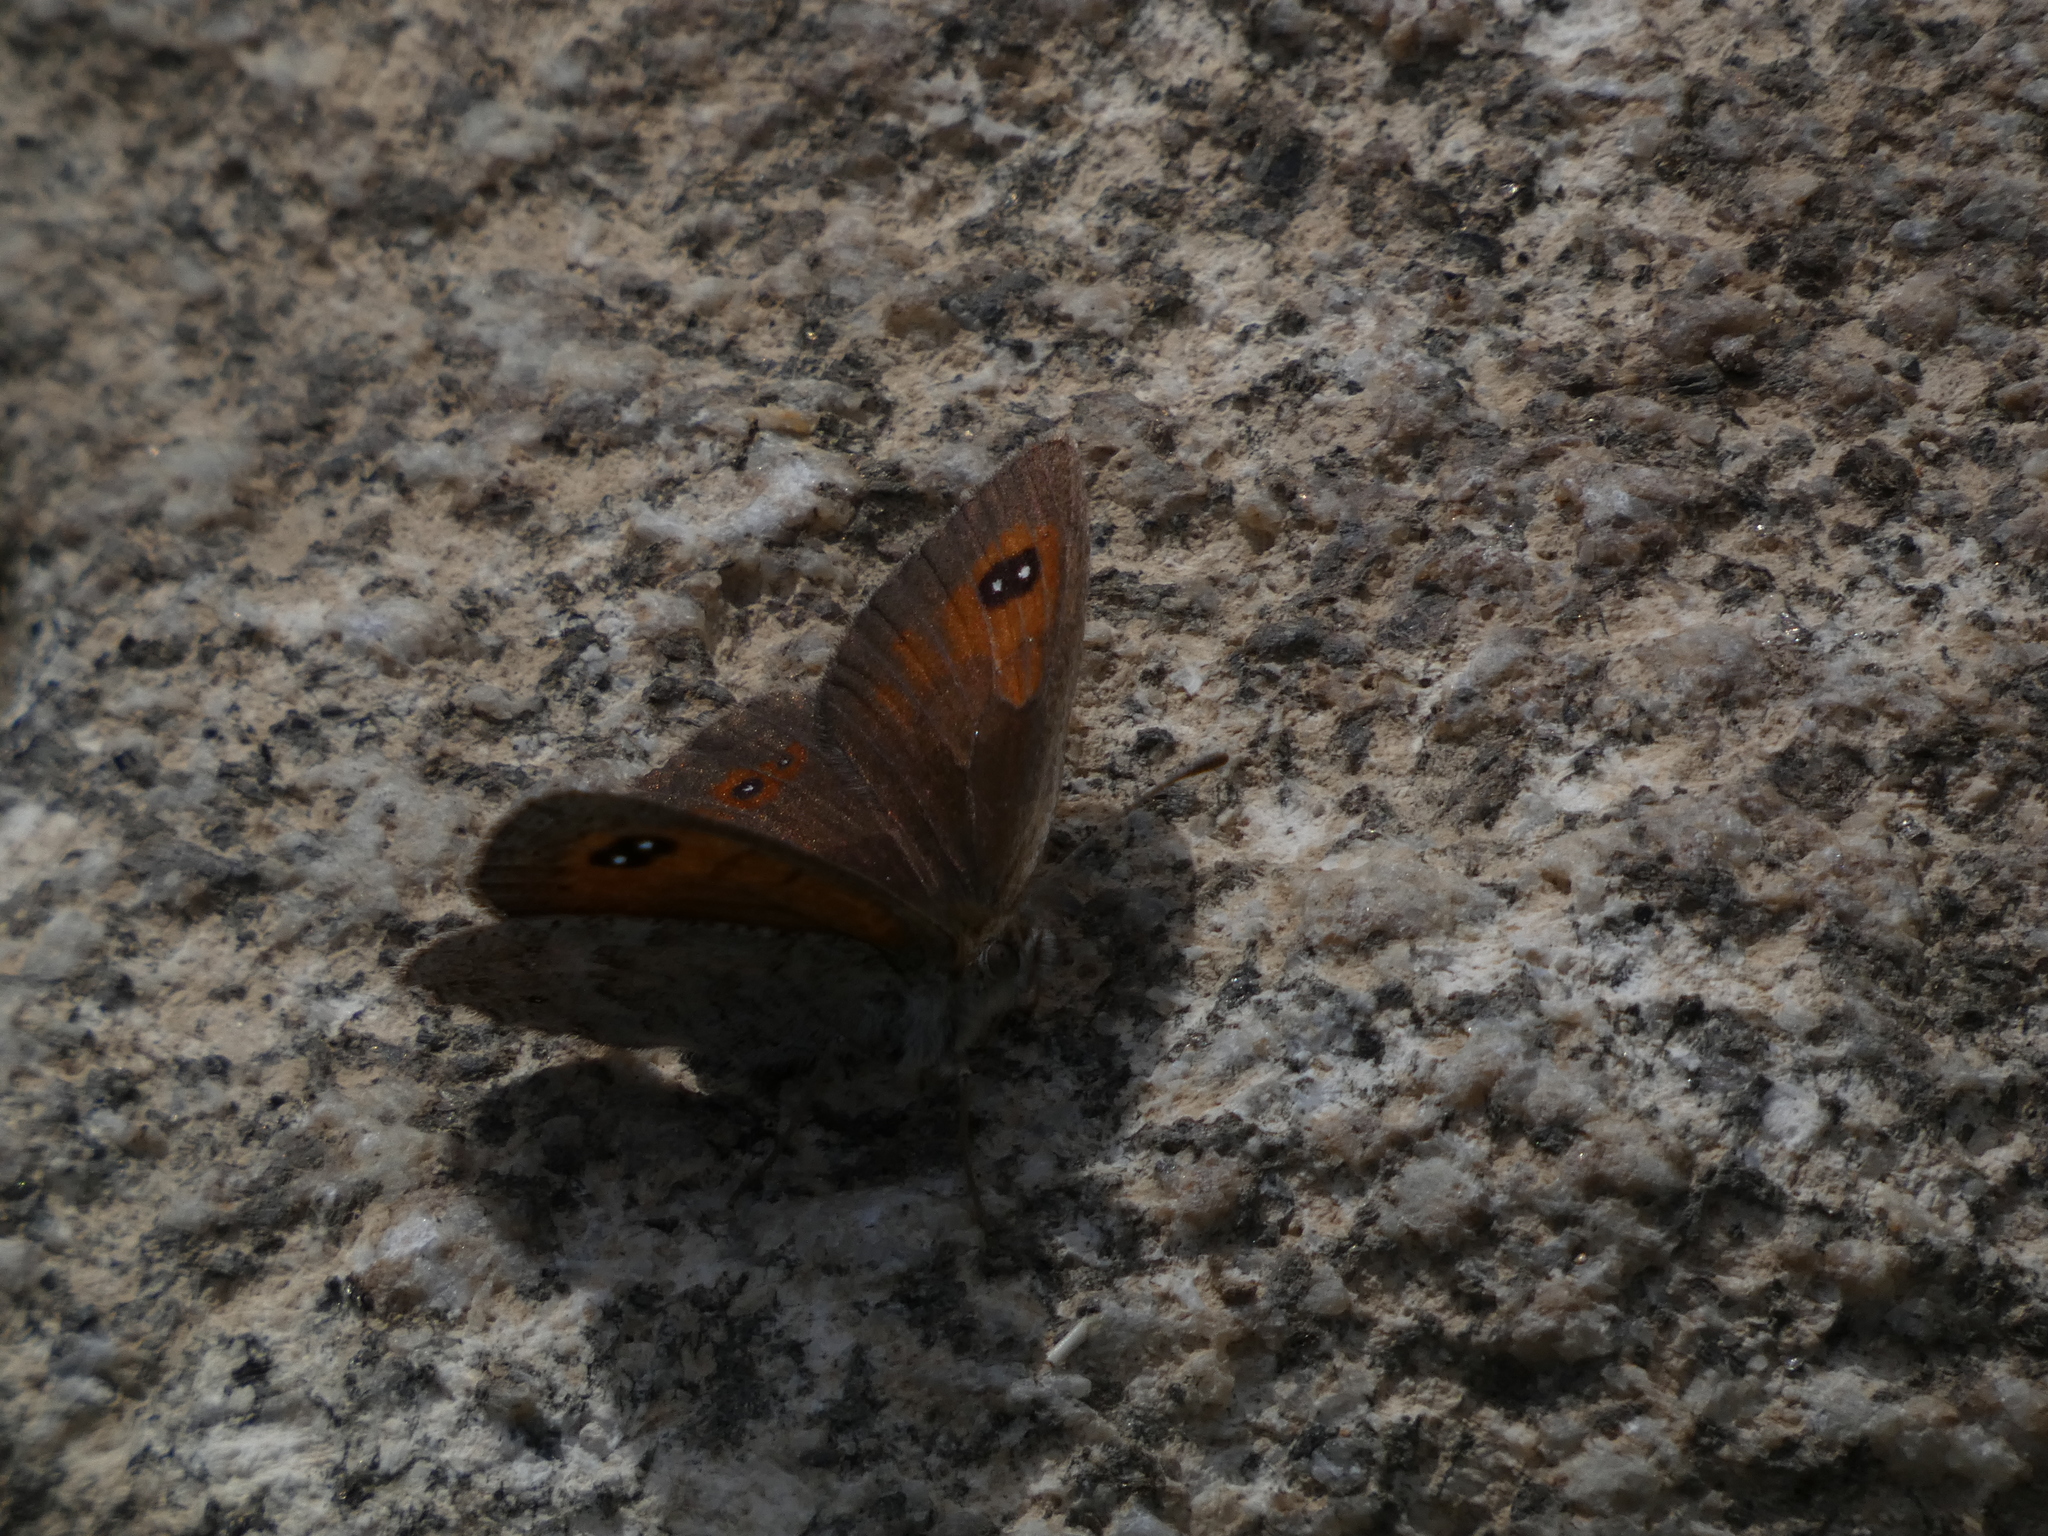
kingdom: Animalia
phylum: Arthropoda
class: Insecta
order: Lepidoptera
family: Nymphalidae
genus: Erebia
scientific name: Erebia cassioides
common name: Common brassy ringlet
